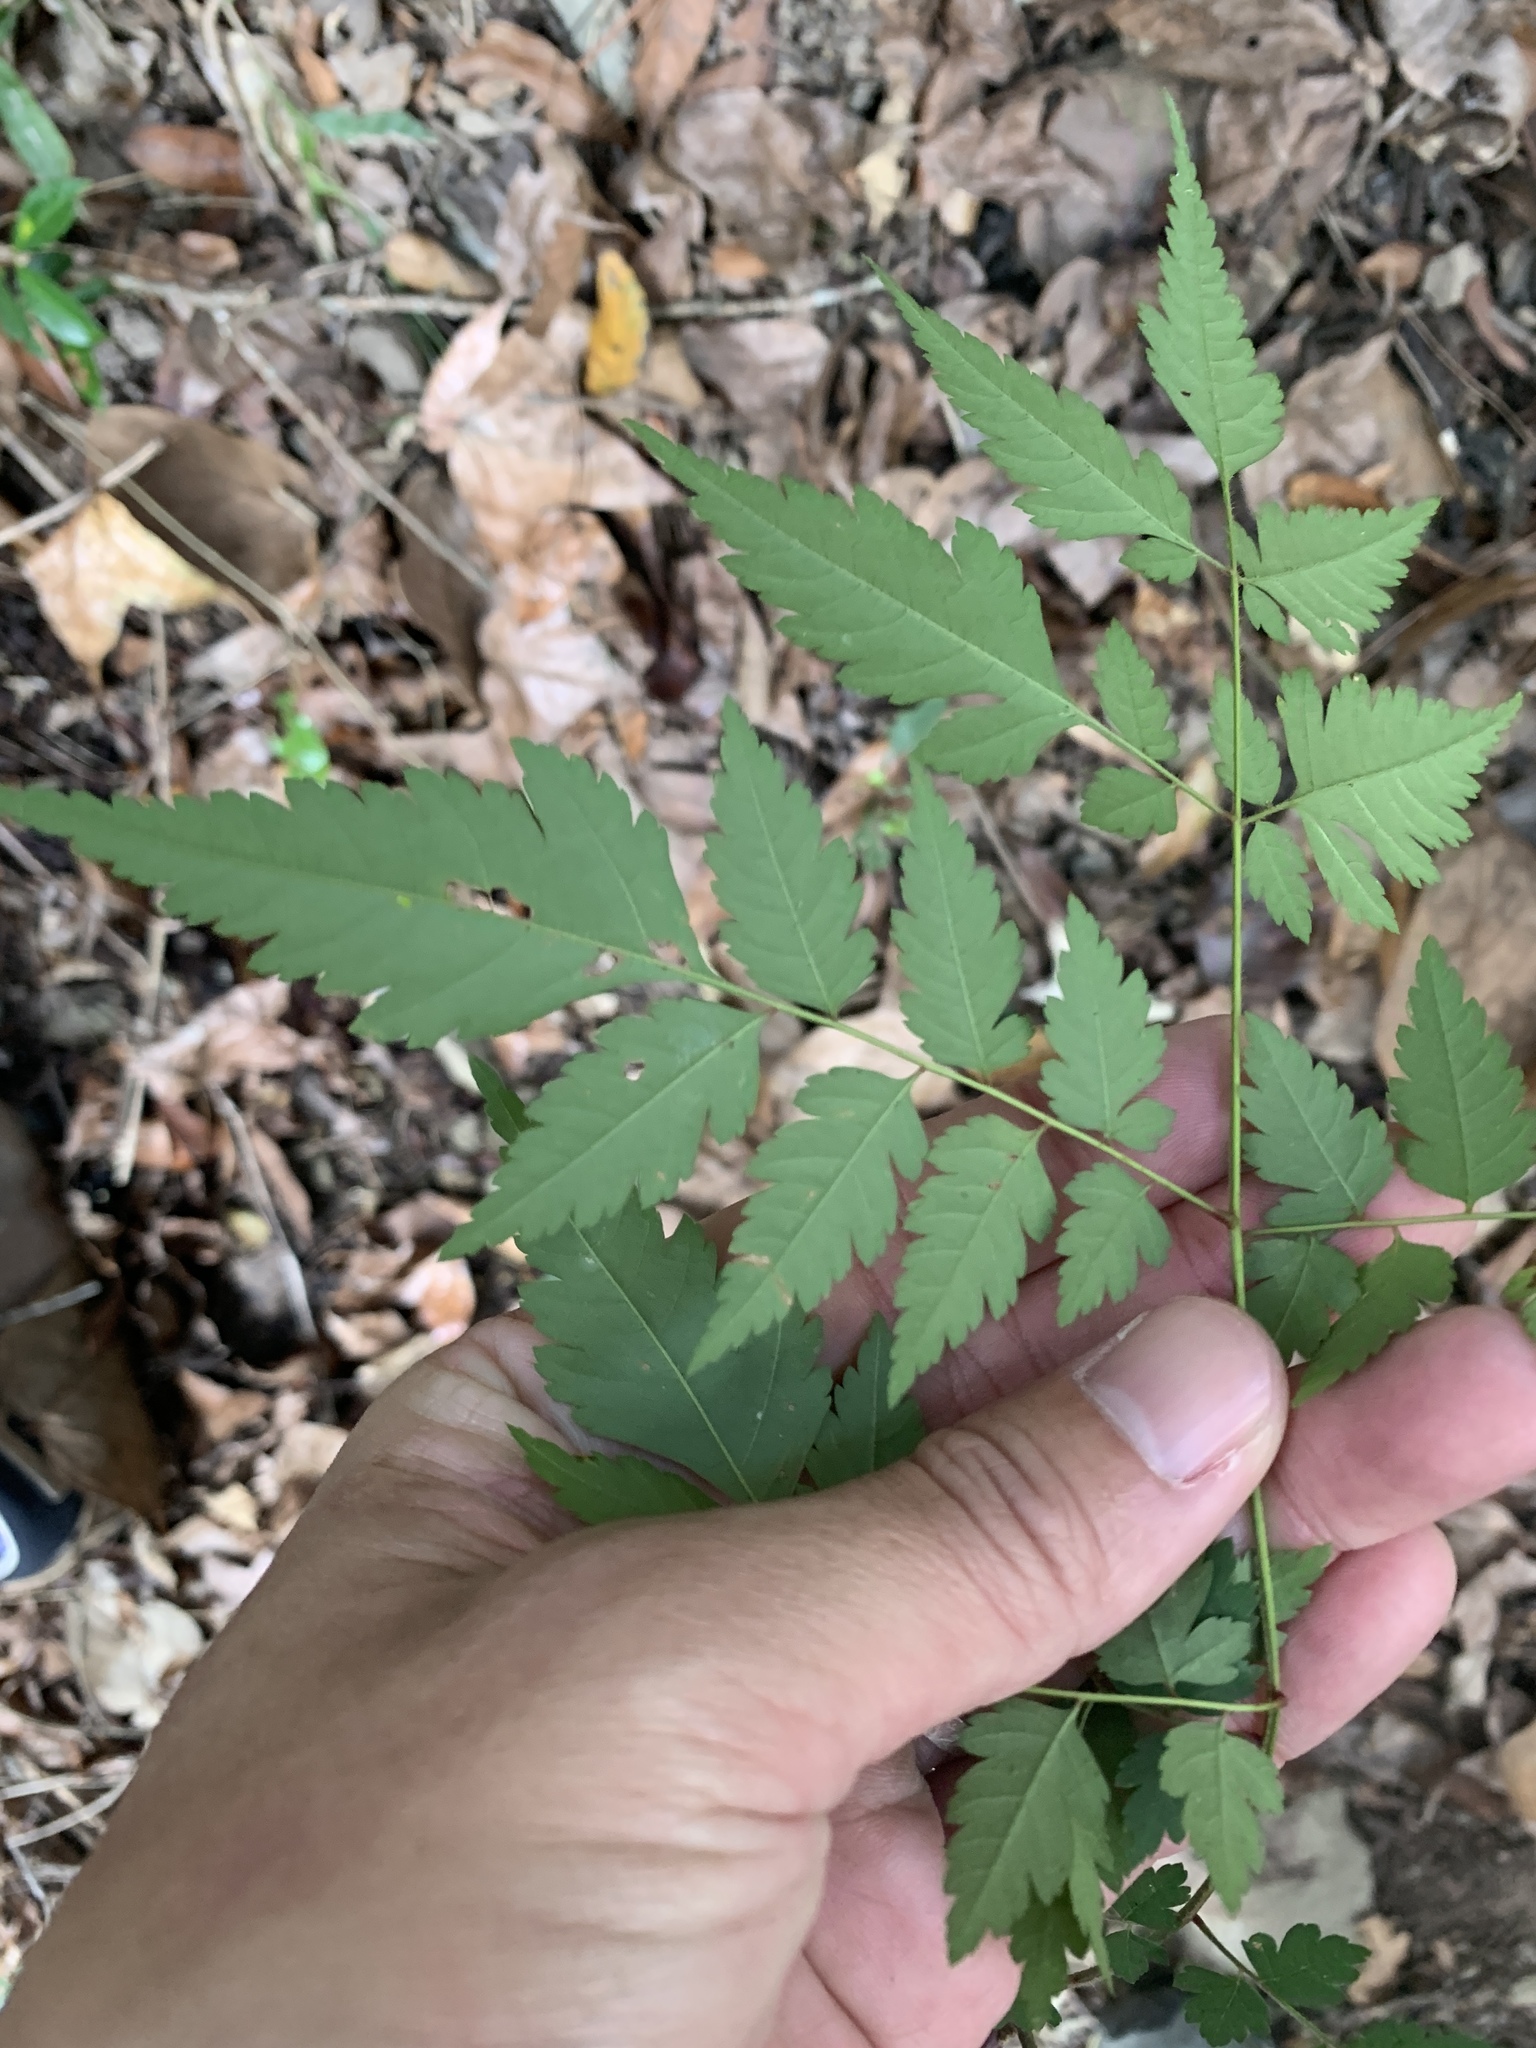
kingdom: Plantae
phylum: Tracheophyta
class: Magnoliopsida
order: Sapindales
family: Sapindaceae
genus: Koelreuteria
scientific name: Koelreuteria elegans
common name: Chinese flame tree
